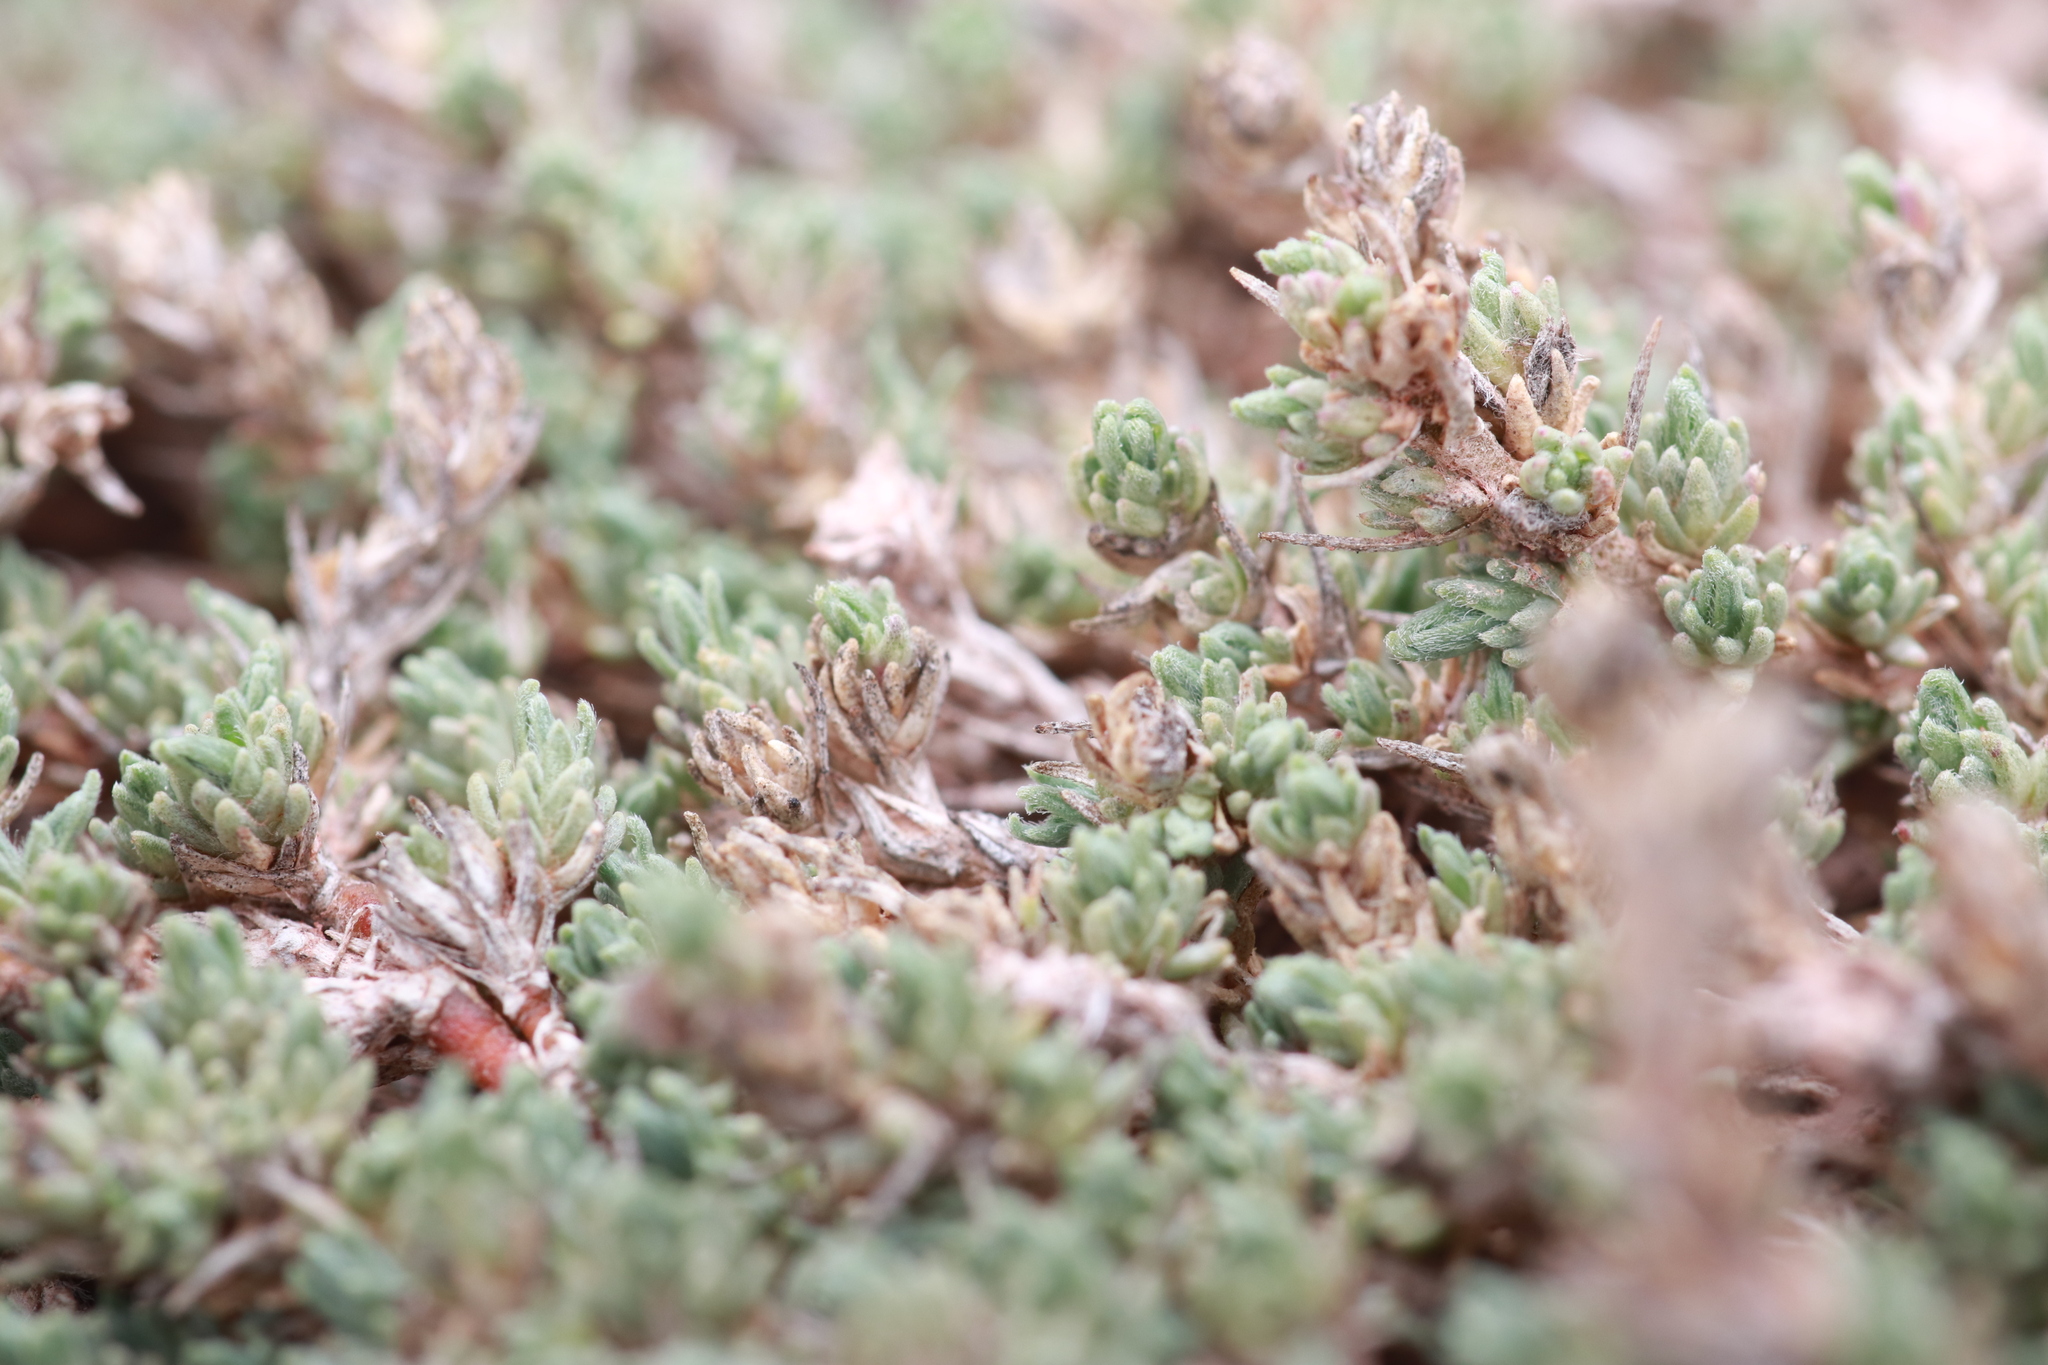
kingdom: Plantae
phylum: Tracheophyta
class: Magnoliopsida
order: Caryophyllales
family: Amaranthaceae
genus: Camphorosma
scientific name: Camphorosma monspeliaca
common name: Camphorfume
